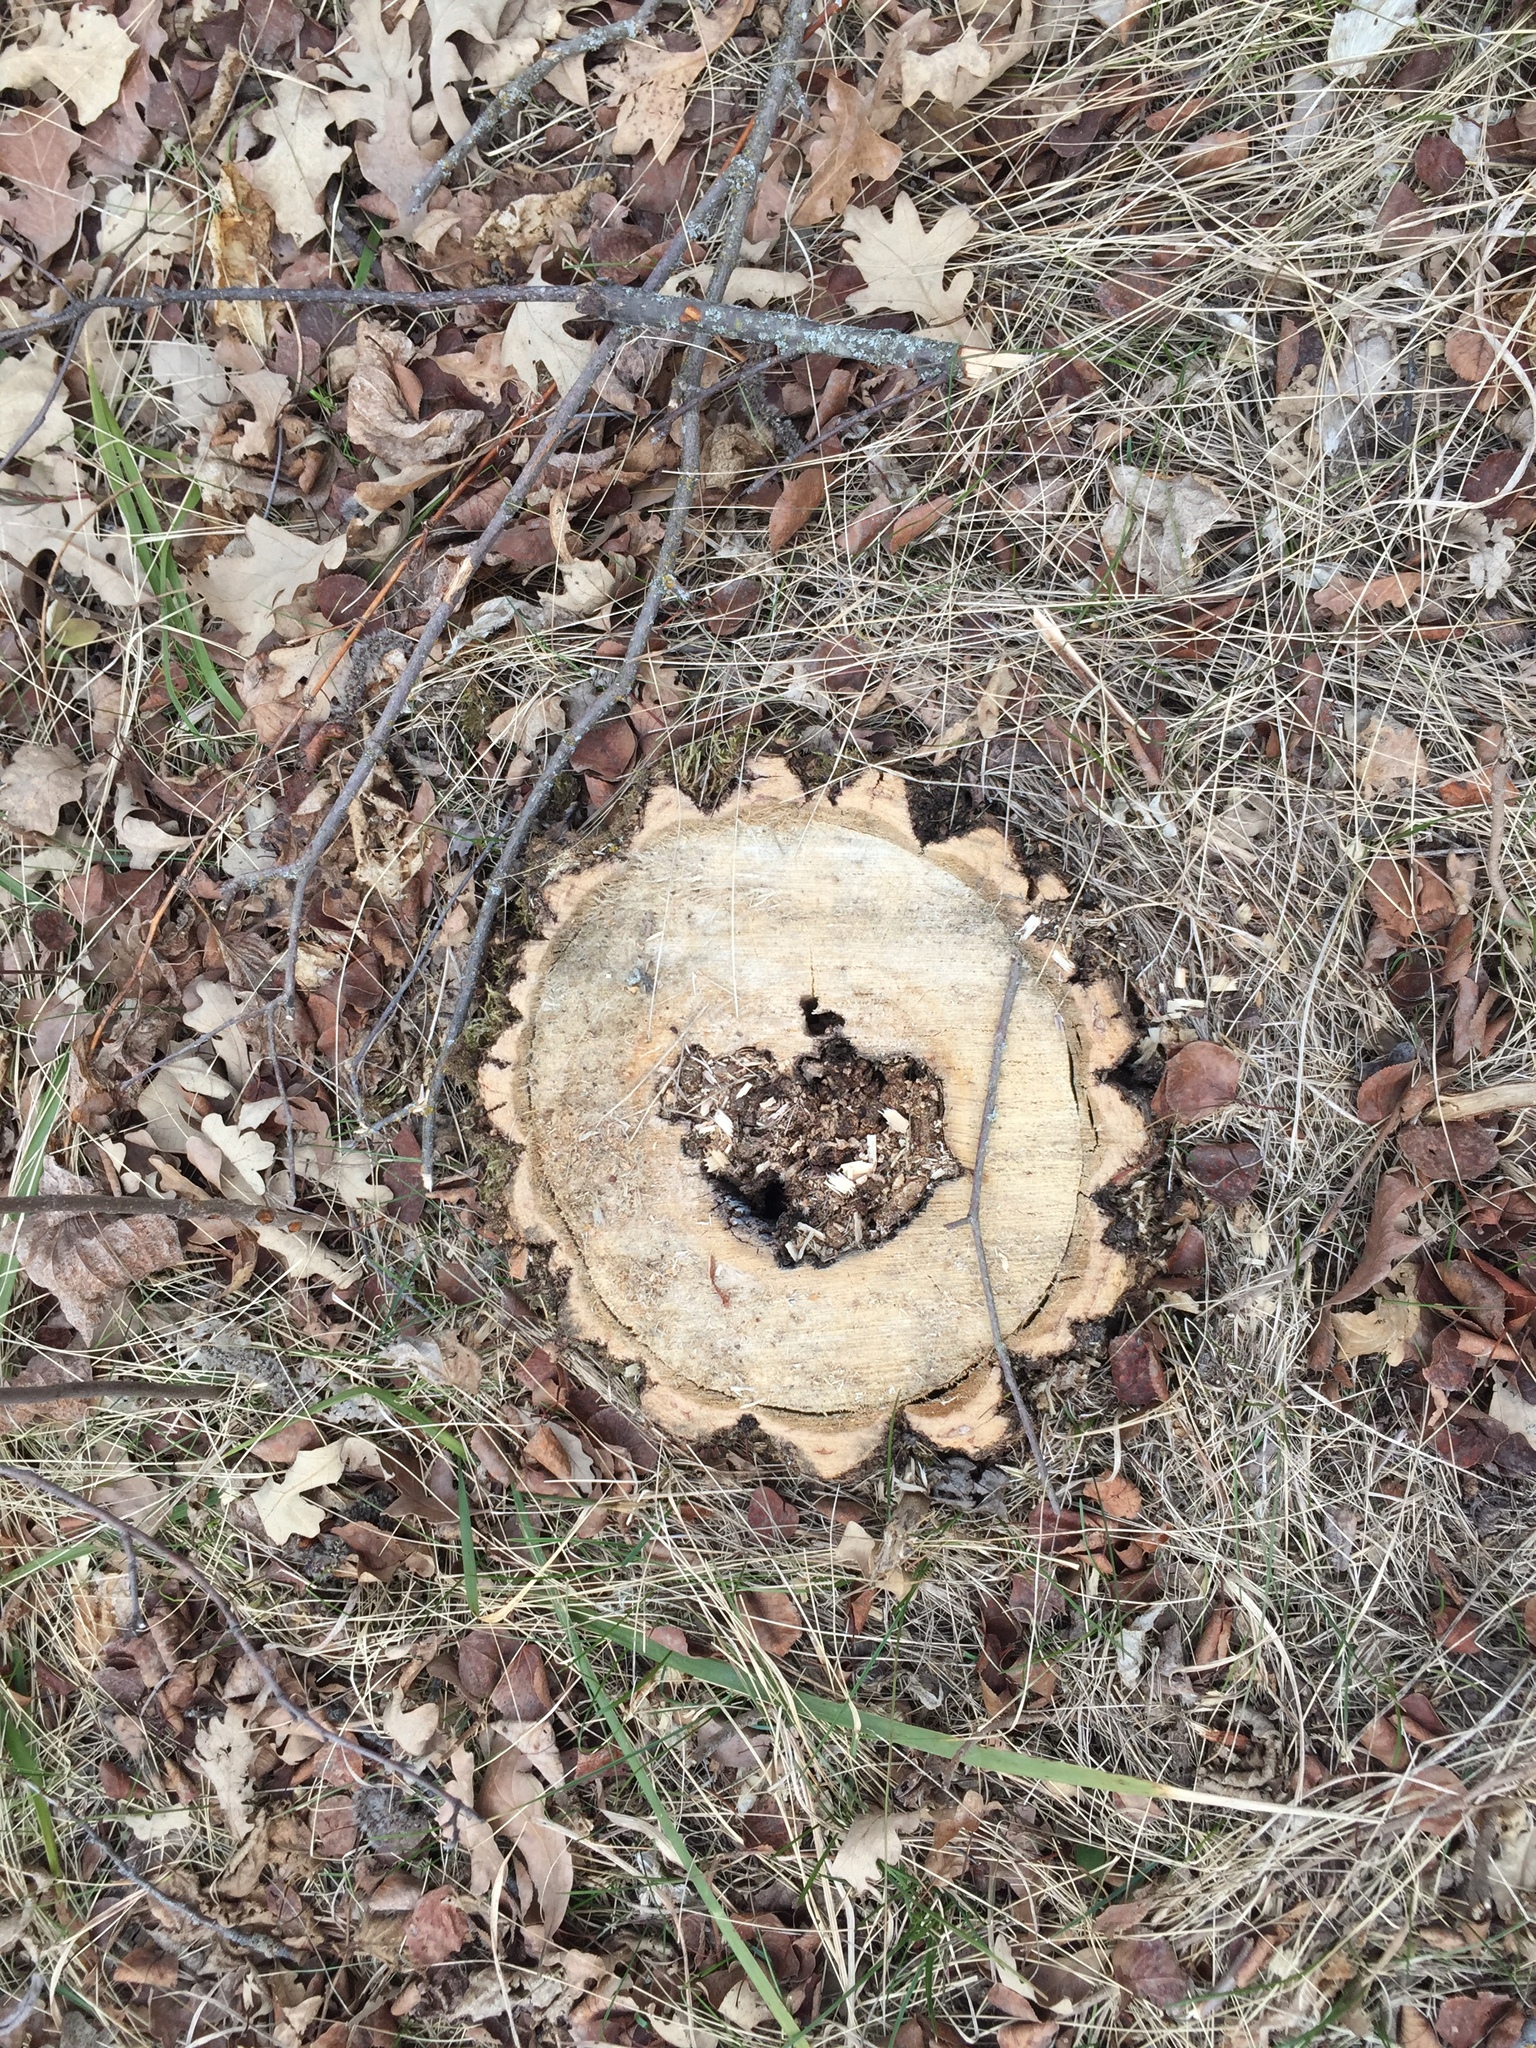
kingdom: Plantae
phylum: Tracheophyta
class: Magnoliopsida
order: Fagales
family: Fagaceae
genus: Quercus
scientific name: Quercus macrocarpa
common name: Bur oak
